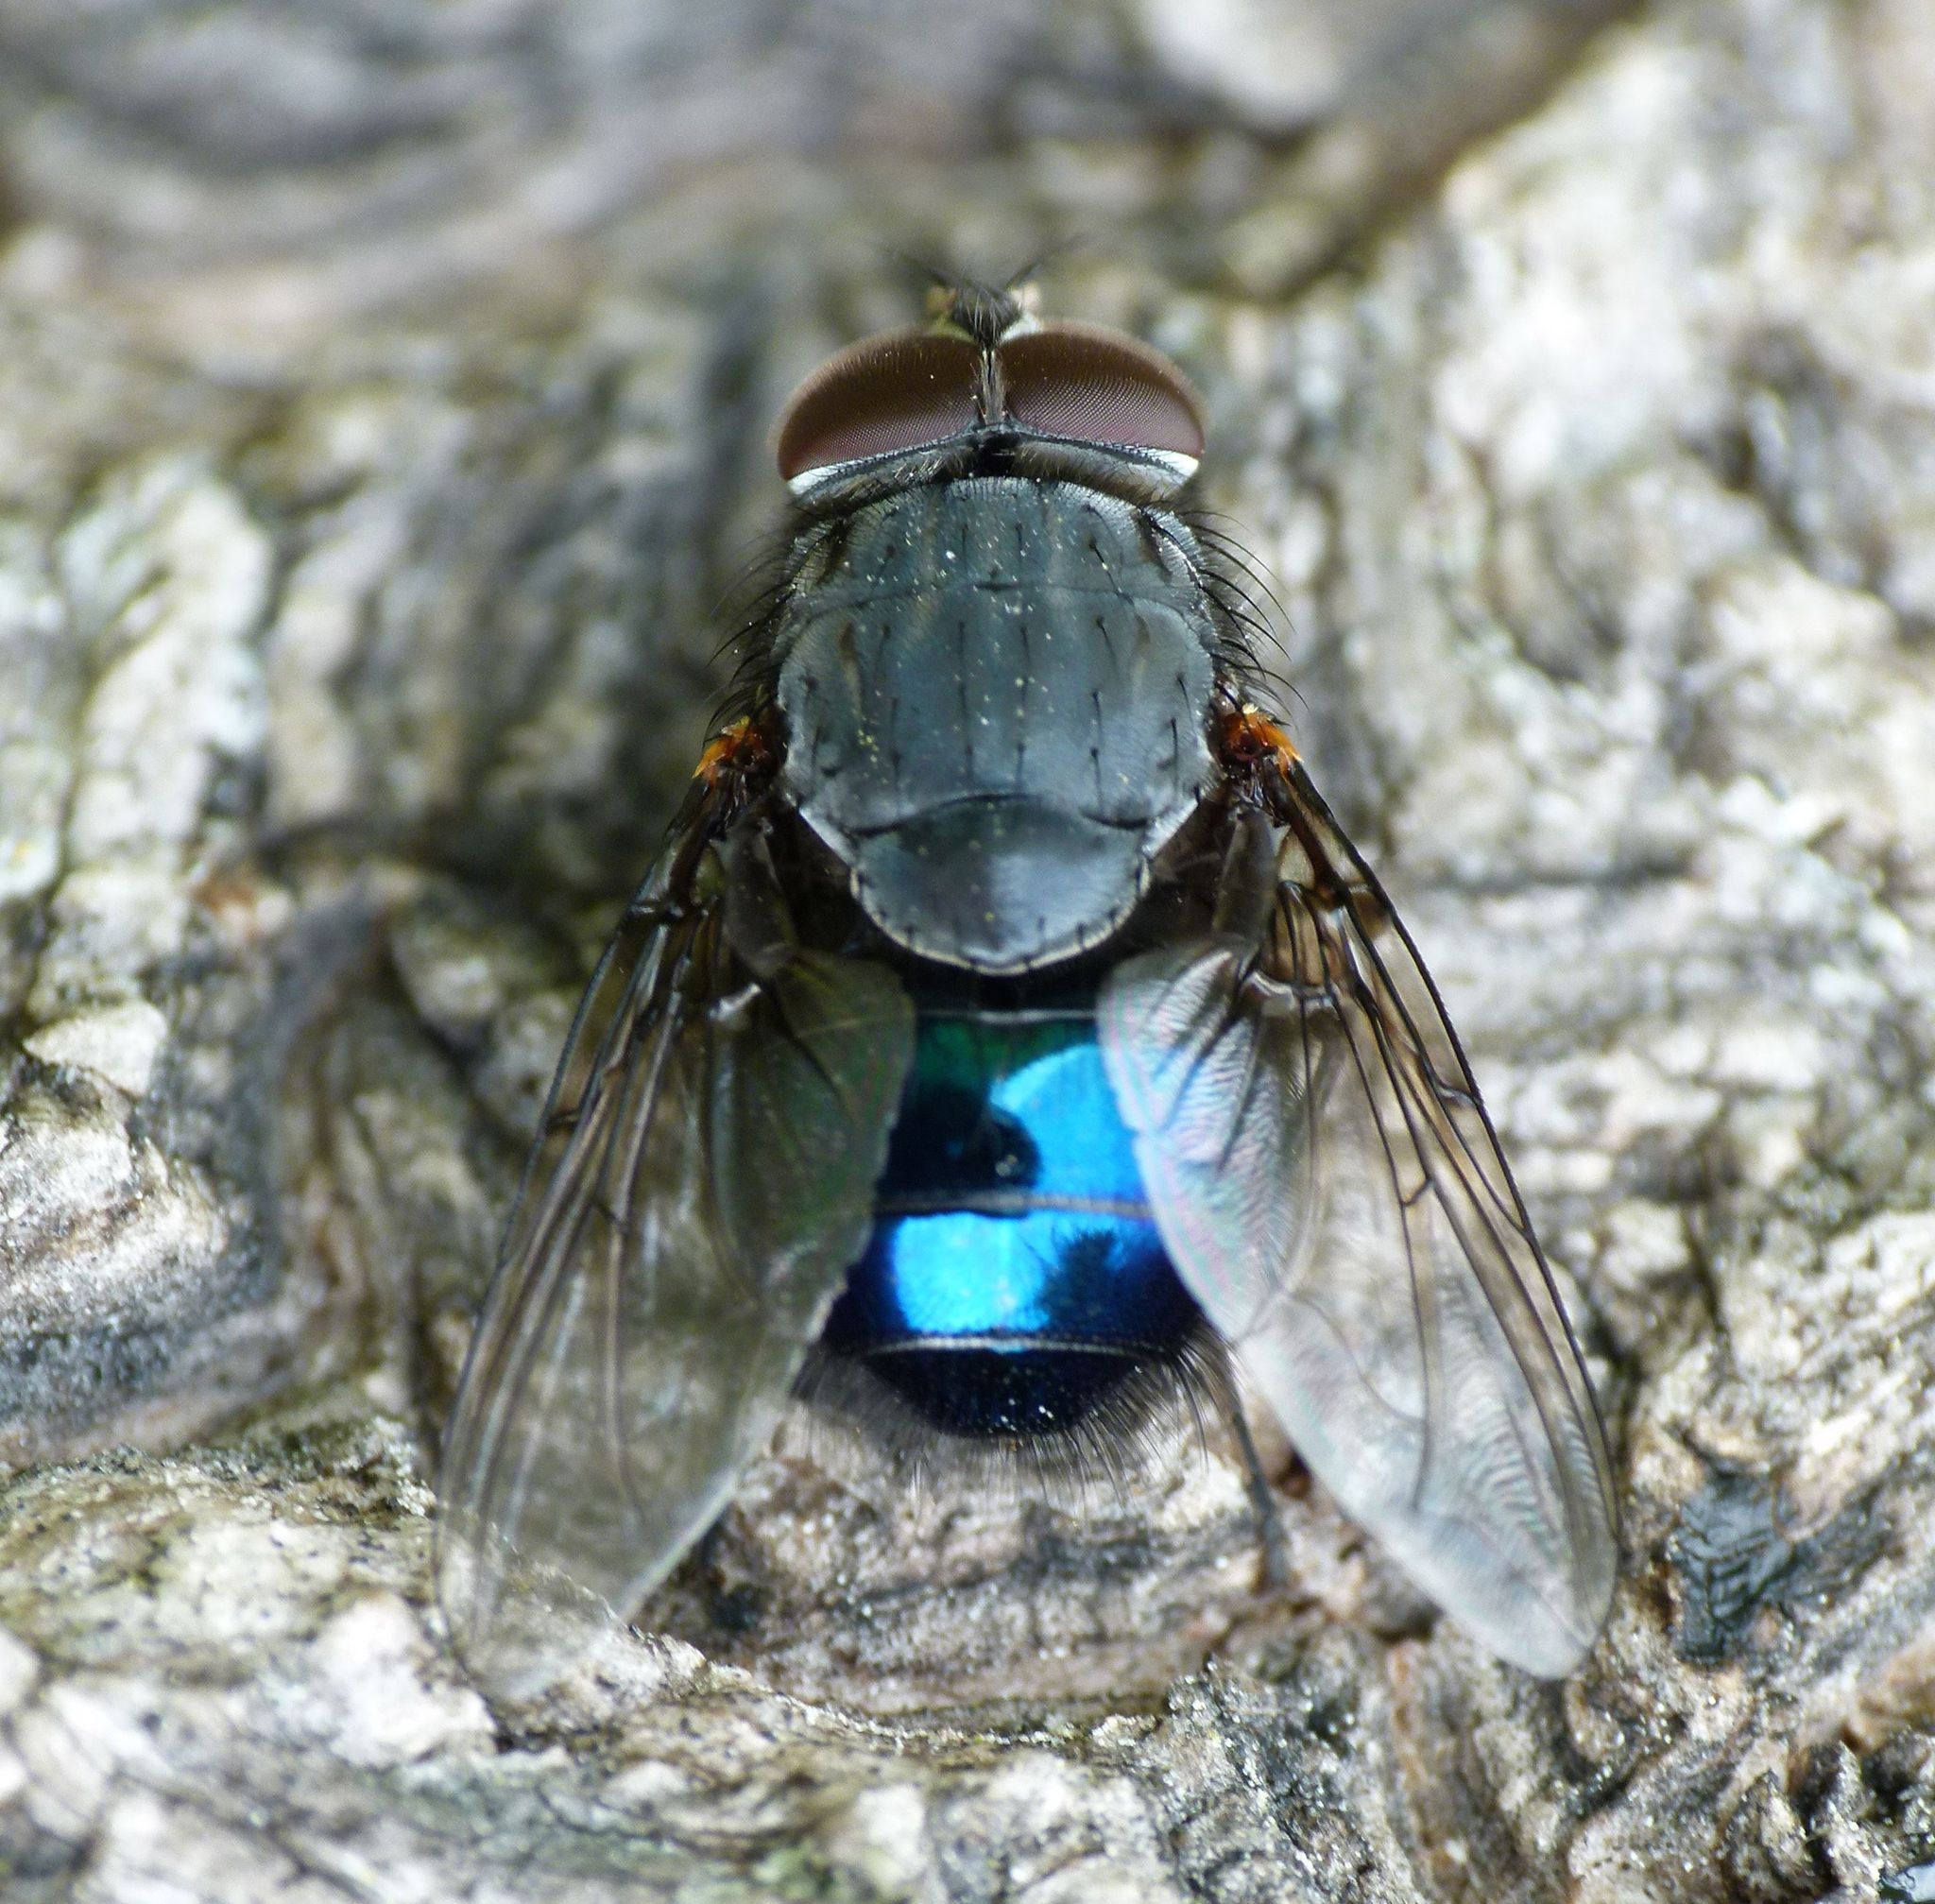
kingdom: Animalia
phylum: Arthropoda
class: Insecta
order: Diptera
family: Calliphoridae
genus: Calliphora
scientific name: Calliphora quadrimaculata
